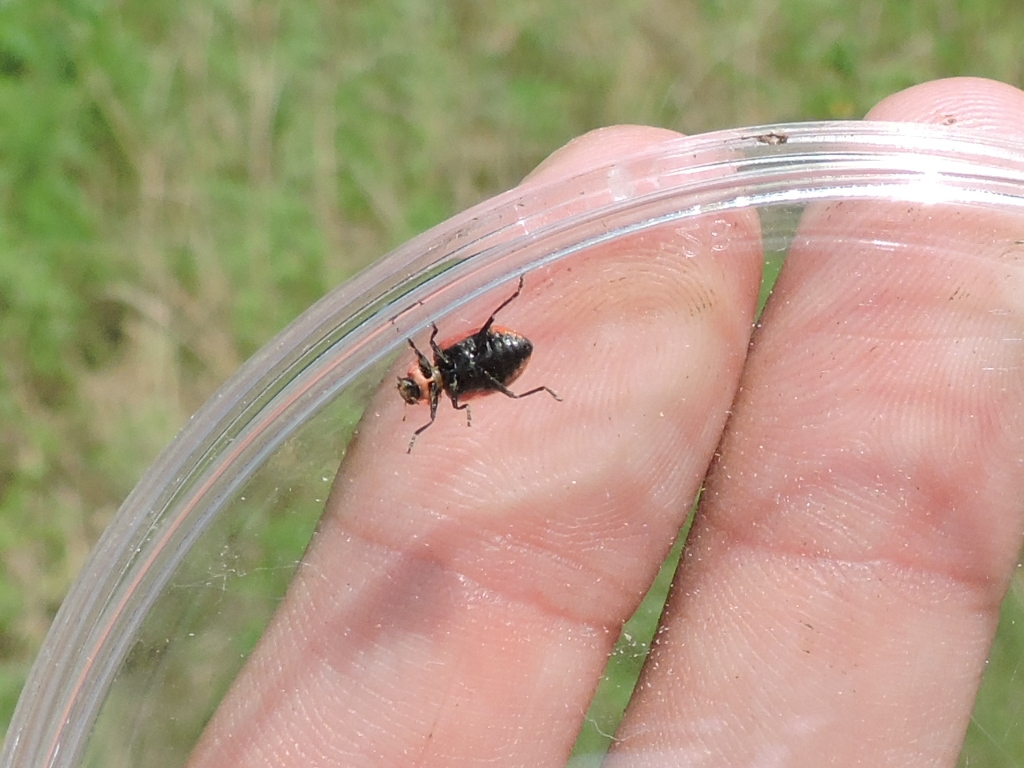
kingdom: Animalia
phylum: Arthropoda
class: Insecta
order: Coleoptera
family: Coccinellidae
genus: Coleomegilla
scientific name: Coleomegilla maculata
